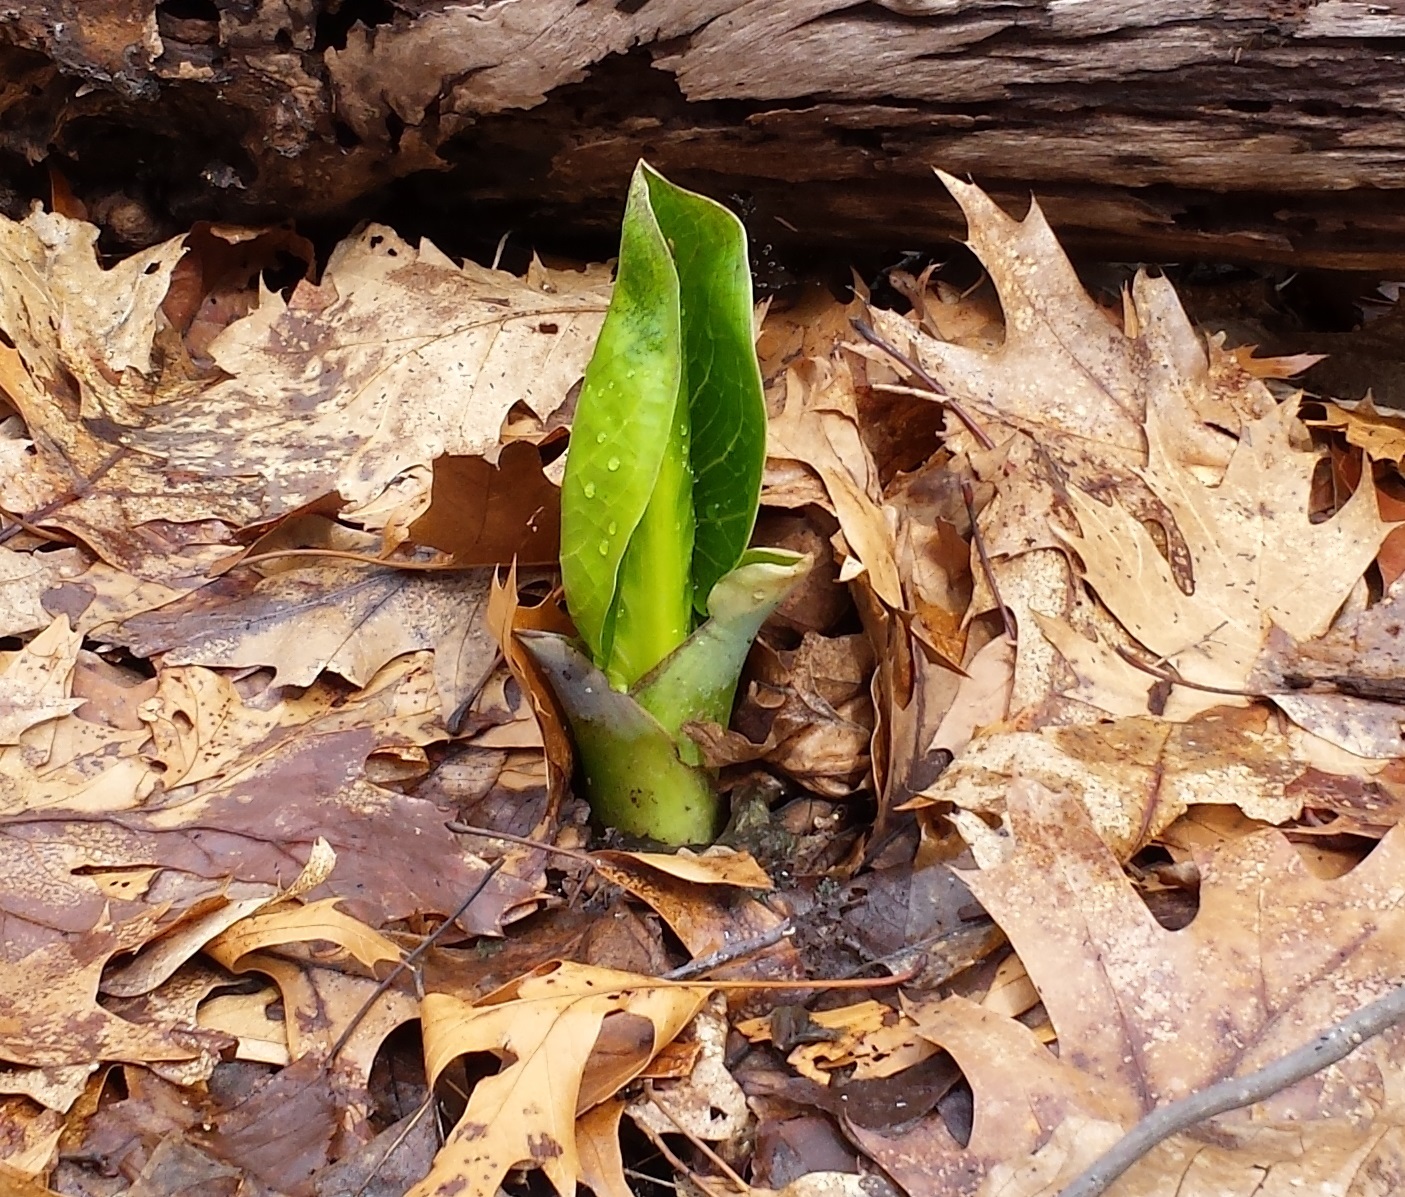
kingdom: Plantae
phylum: Tracheophyta
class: Liliopsida
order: Alismatales
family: Araceae
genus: Symplocarpus
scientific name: Symplocarpus foetidus
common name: Eastern skunk cabbage
